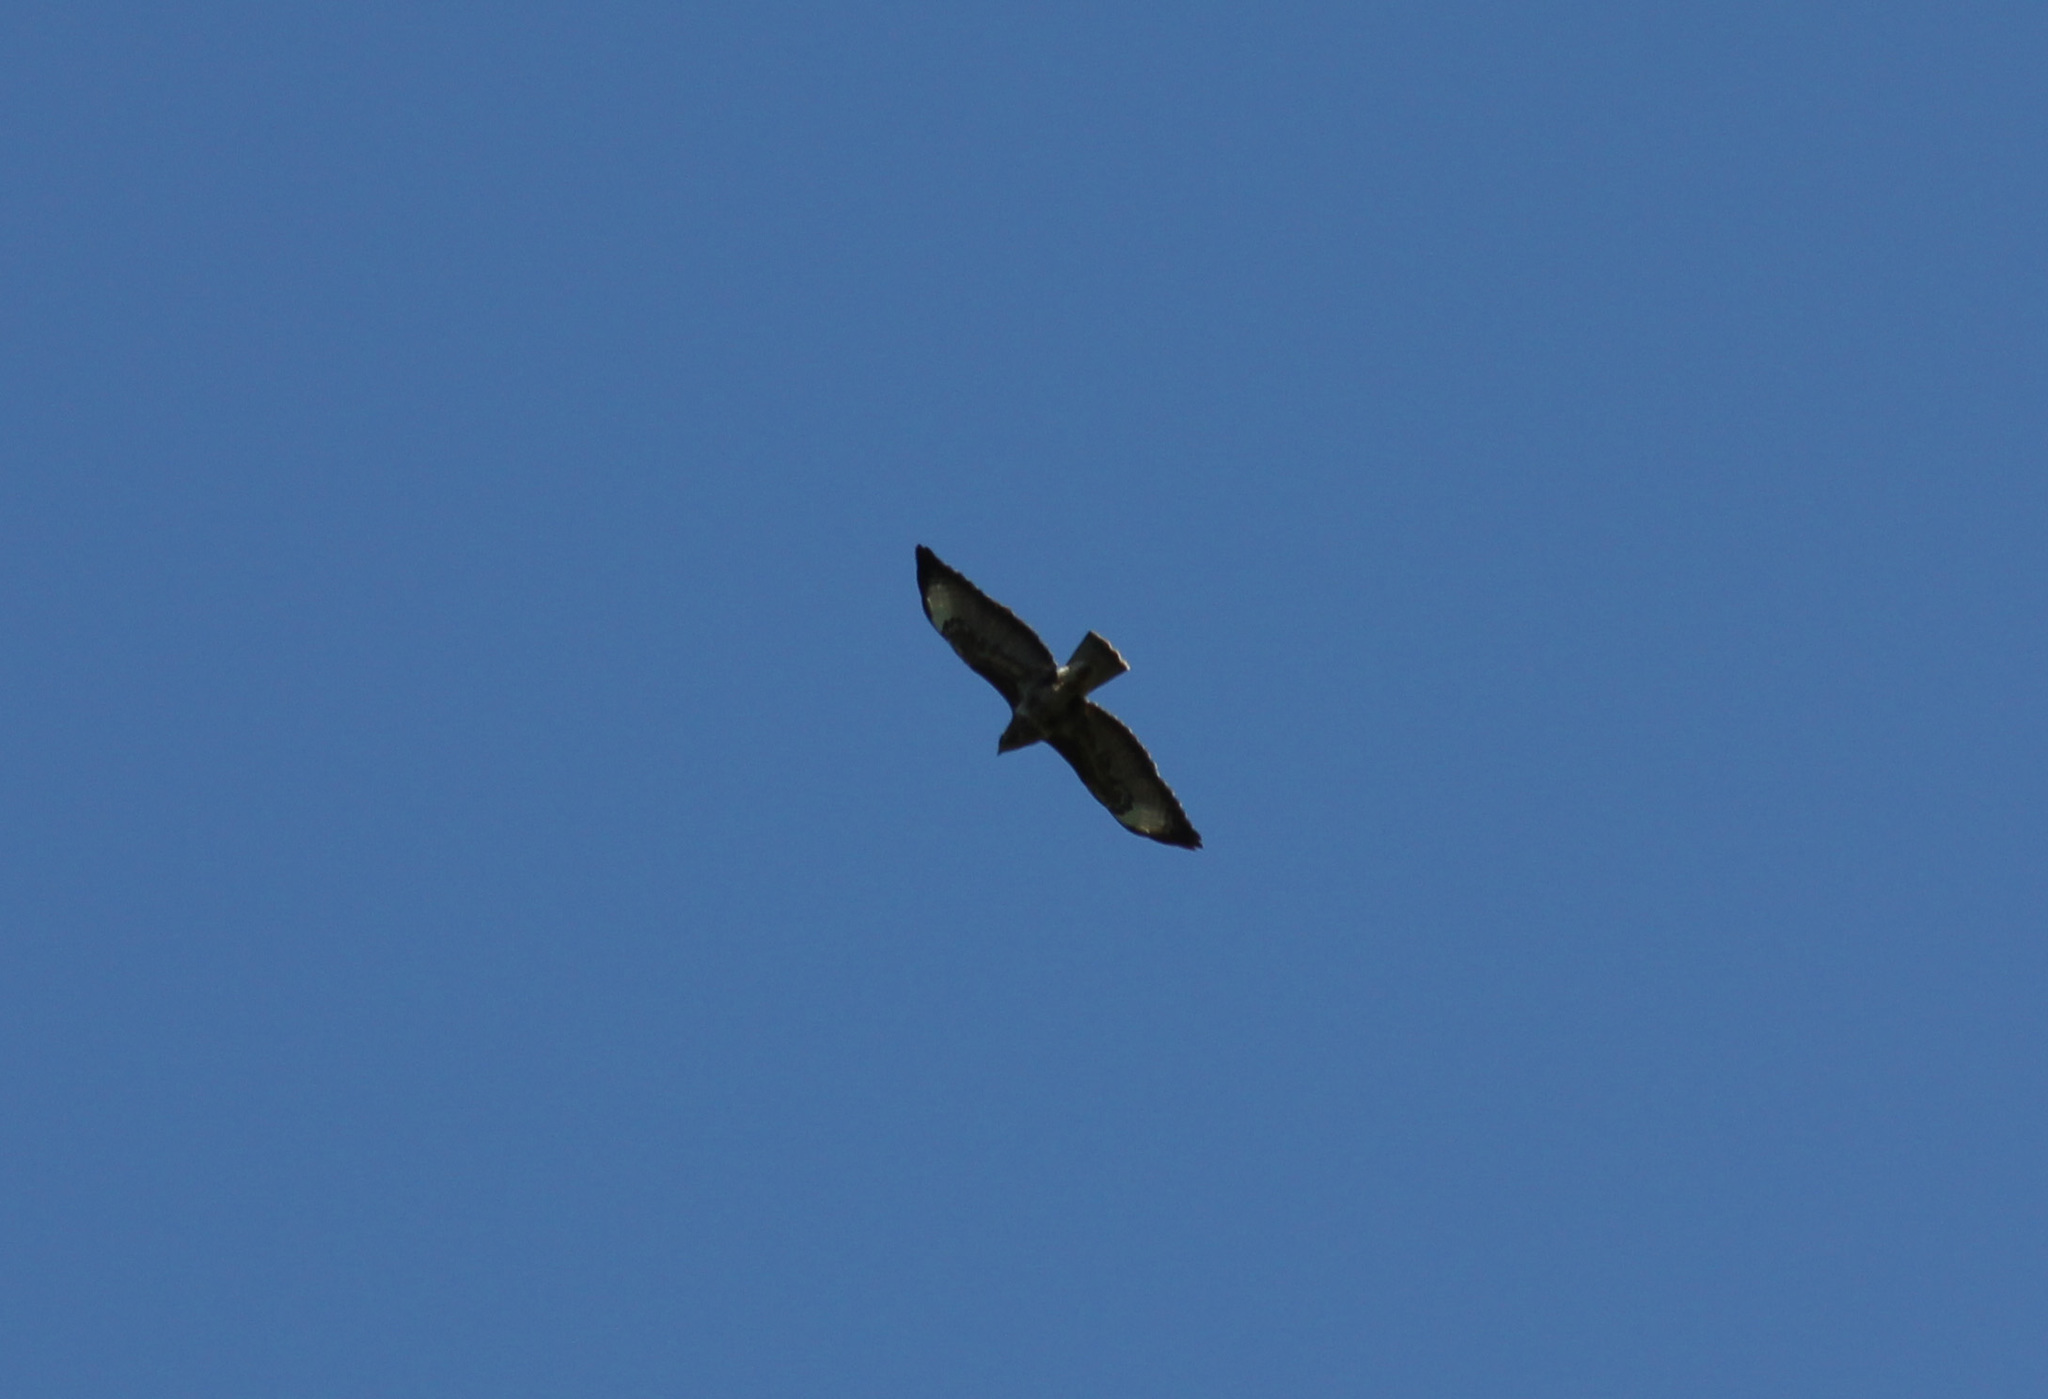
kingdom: Animalia
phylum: Chordata
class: Aves
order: Accipitriformes
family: Accipitridae
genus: Buteo
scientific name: Buteo buteo
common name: Common buzzard
